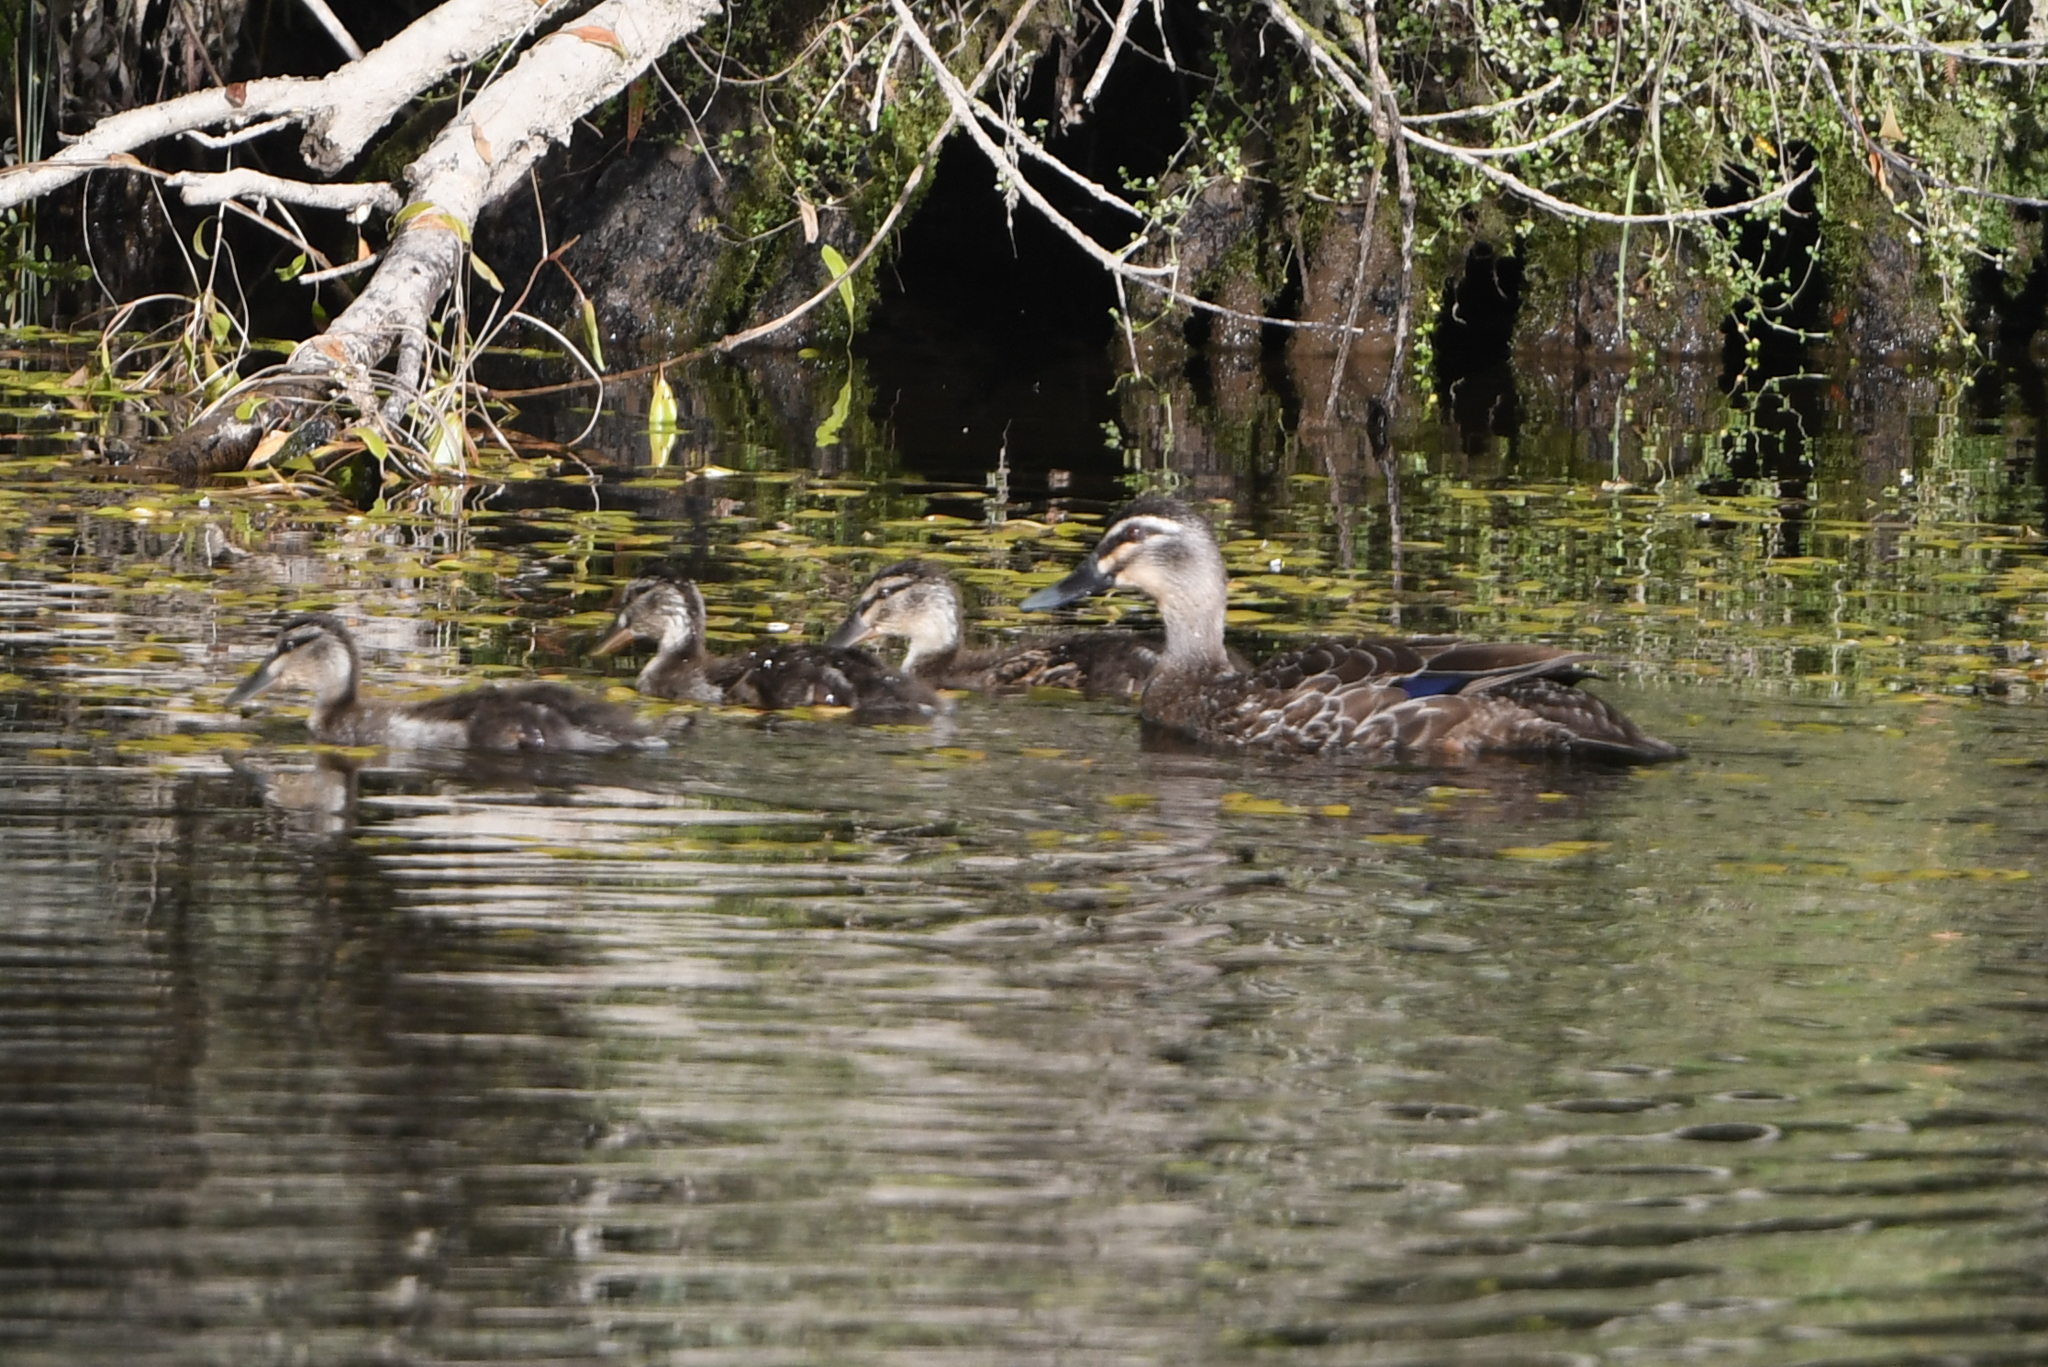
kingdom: Animalia
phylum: Chordata
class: Aves
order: Anseriformes
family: Anatidae
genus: Anas
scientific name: Anas
